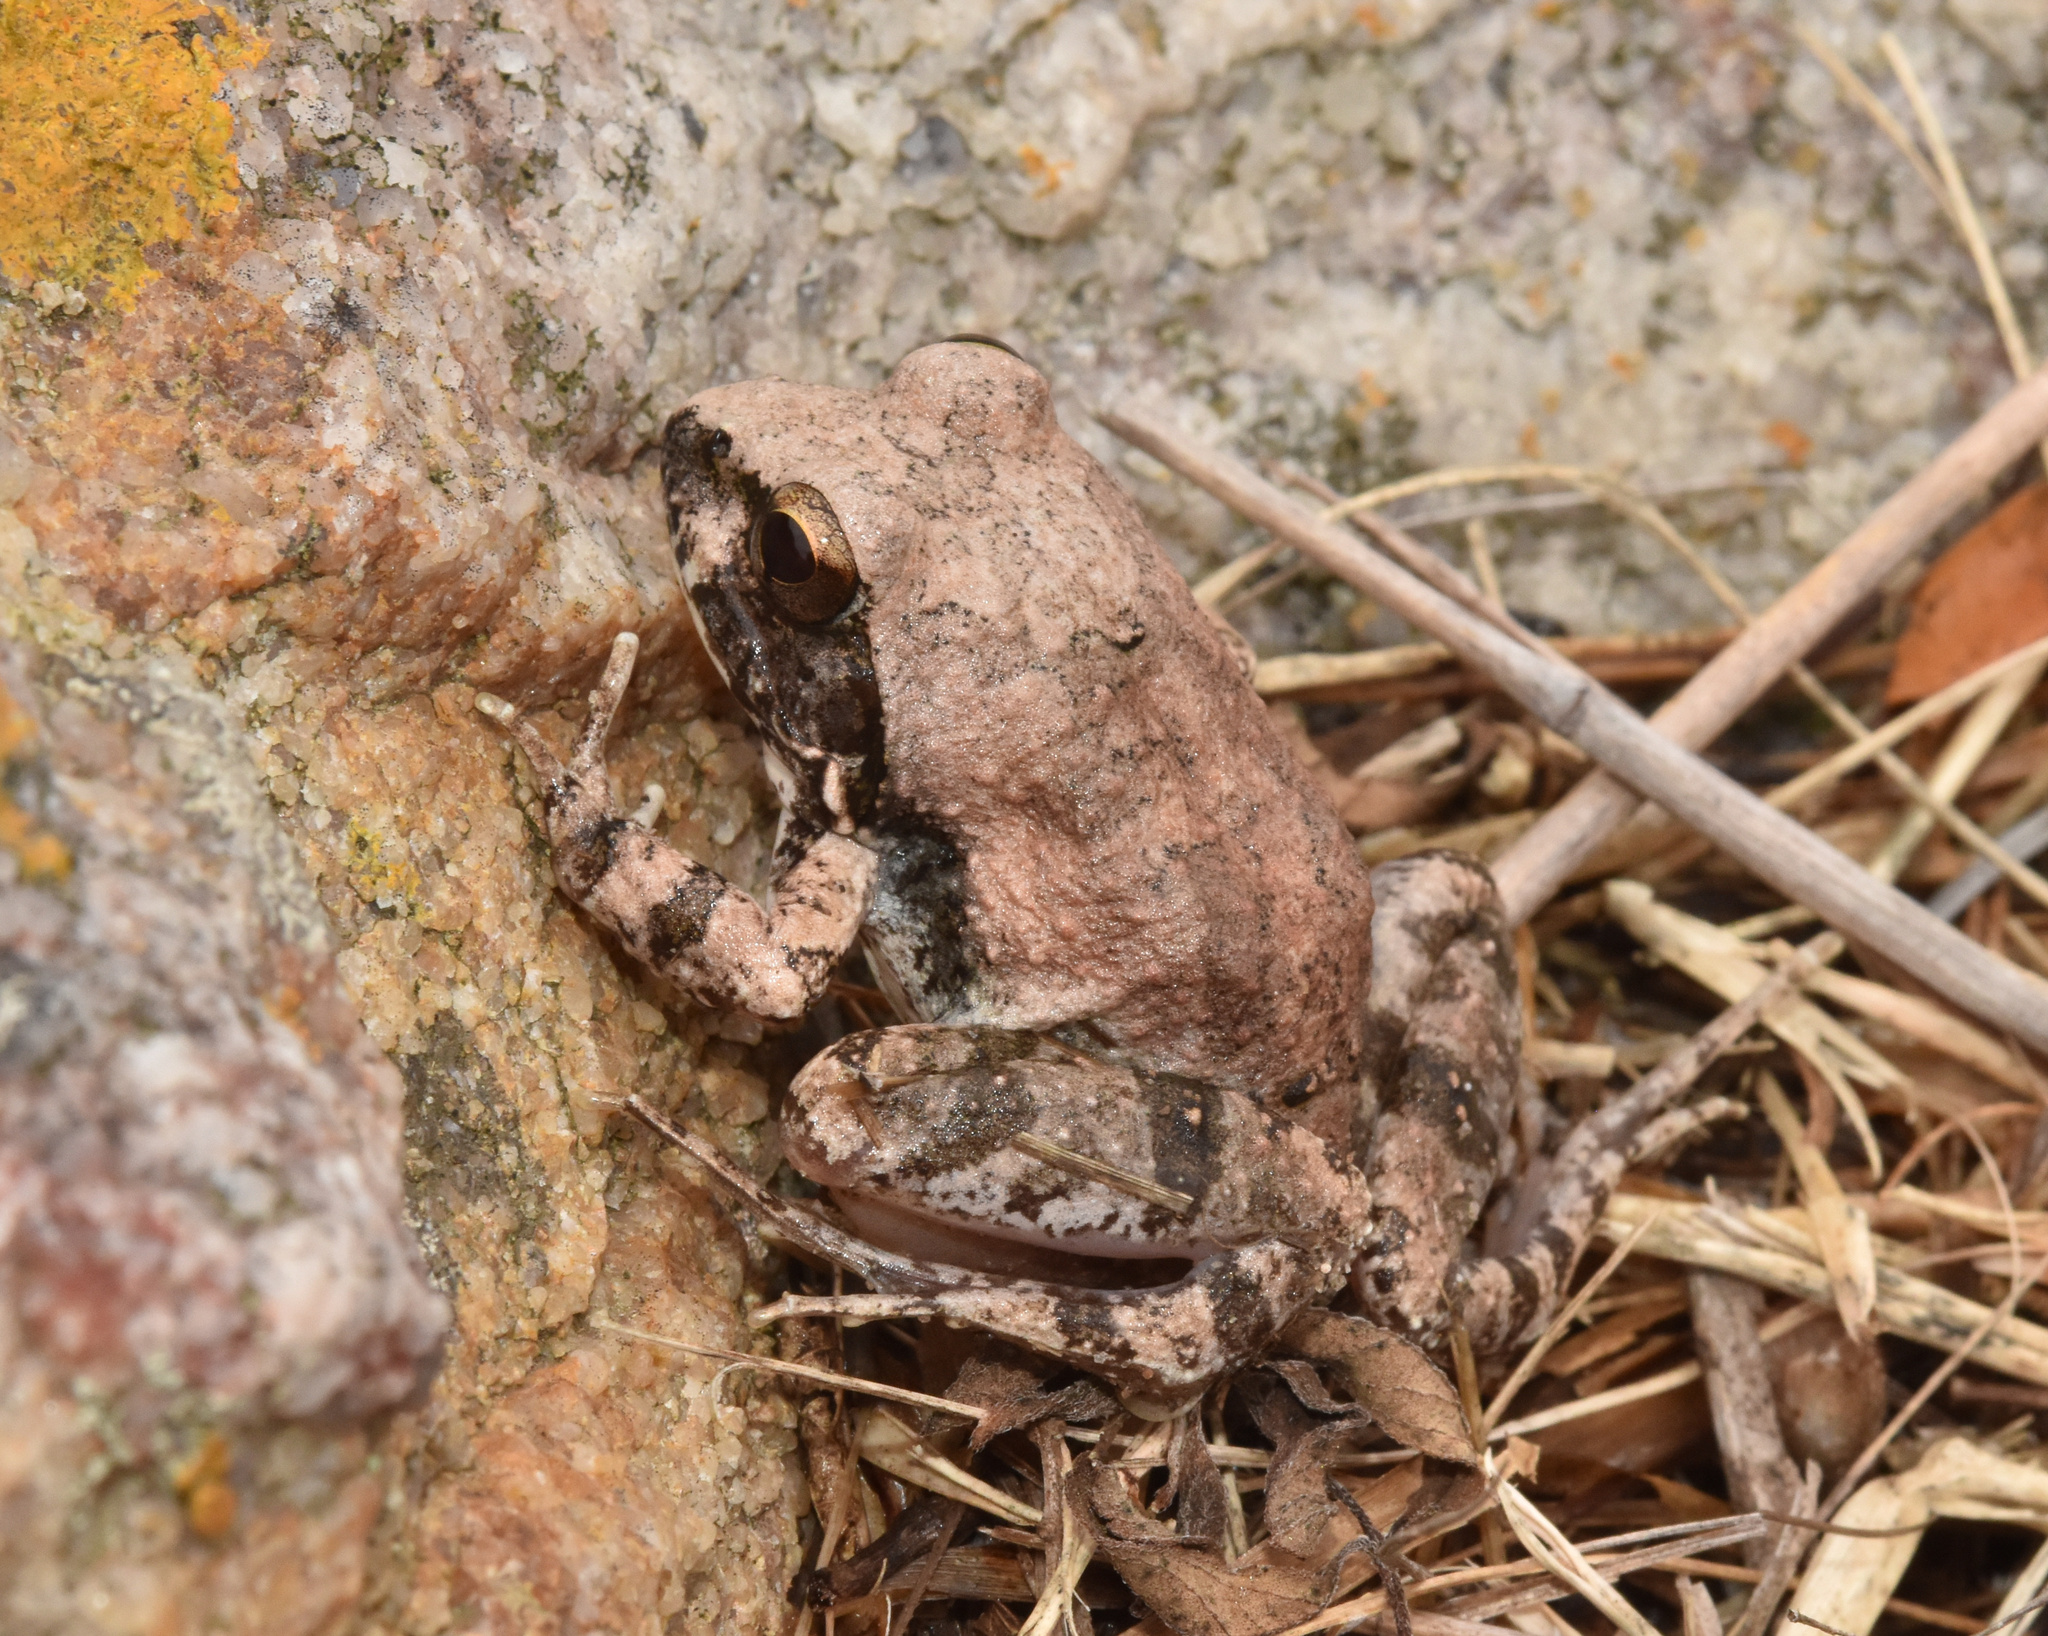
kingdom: Animalia
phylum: Chordata
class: Amphibia
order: Anura
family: Pyxicephalidae
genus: Tomopterna
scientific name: Tomopterna natalensis
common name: Natal sand frog
